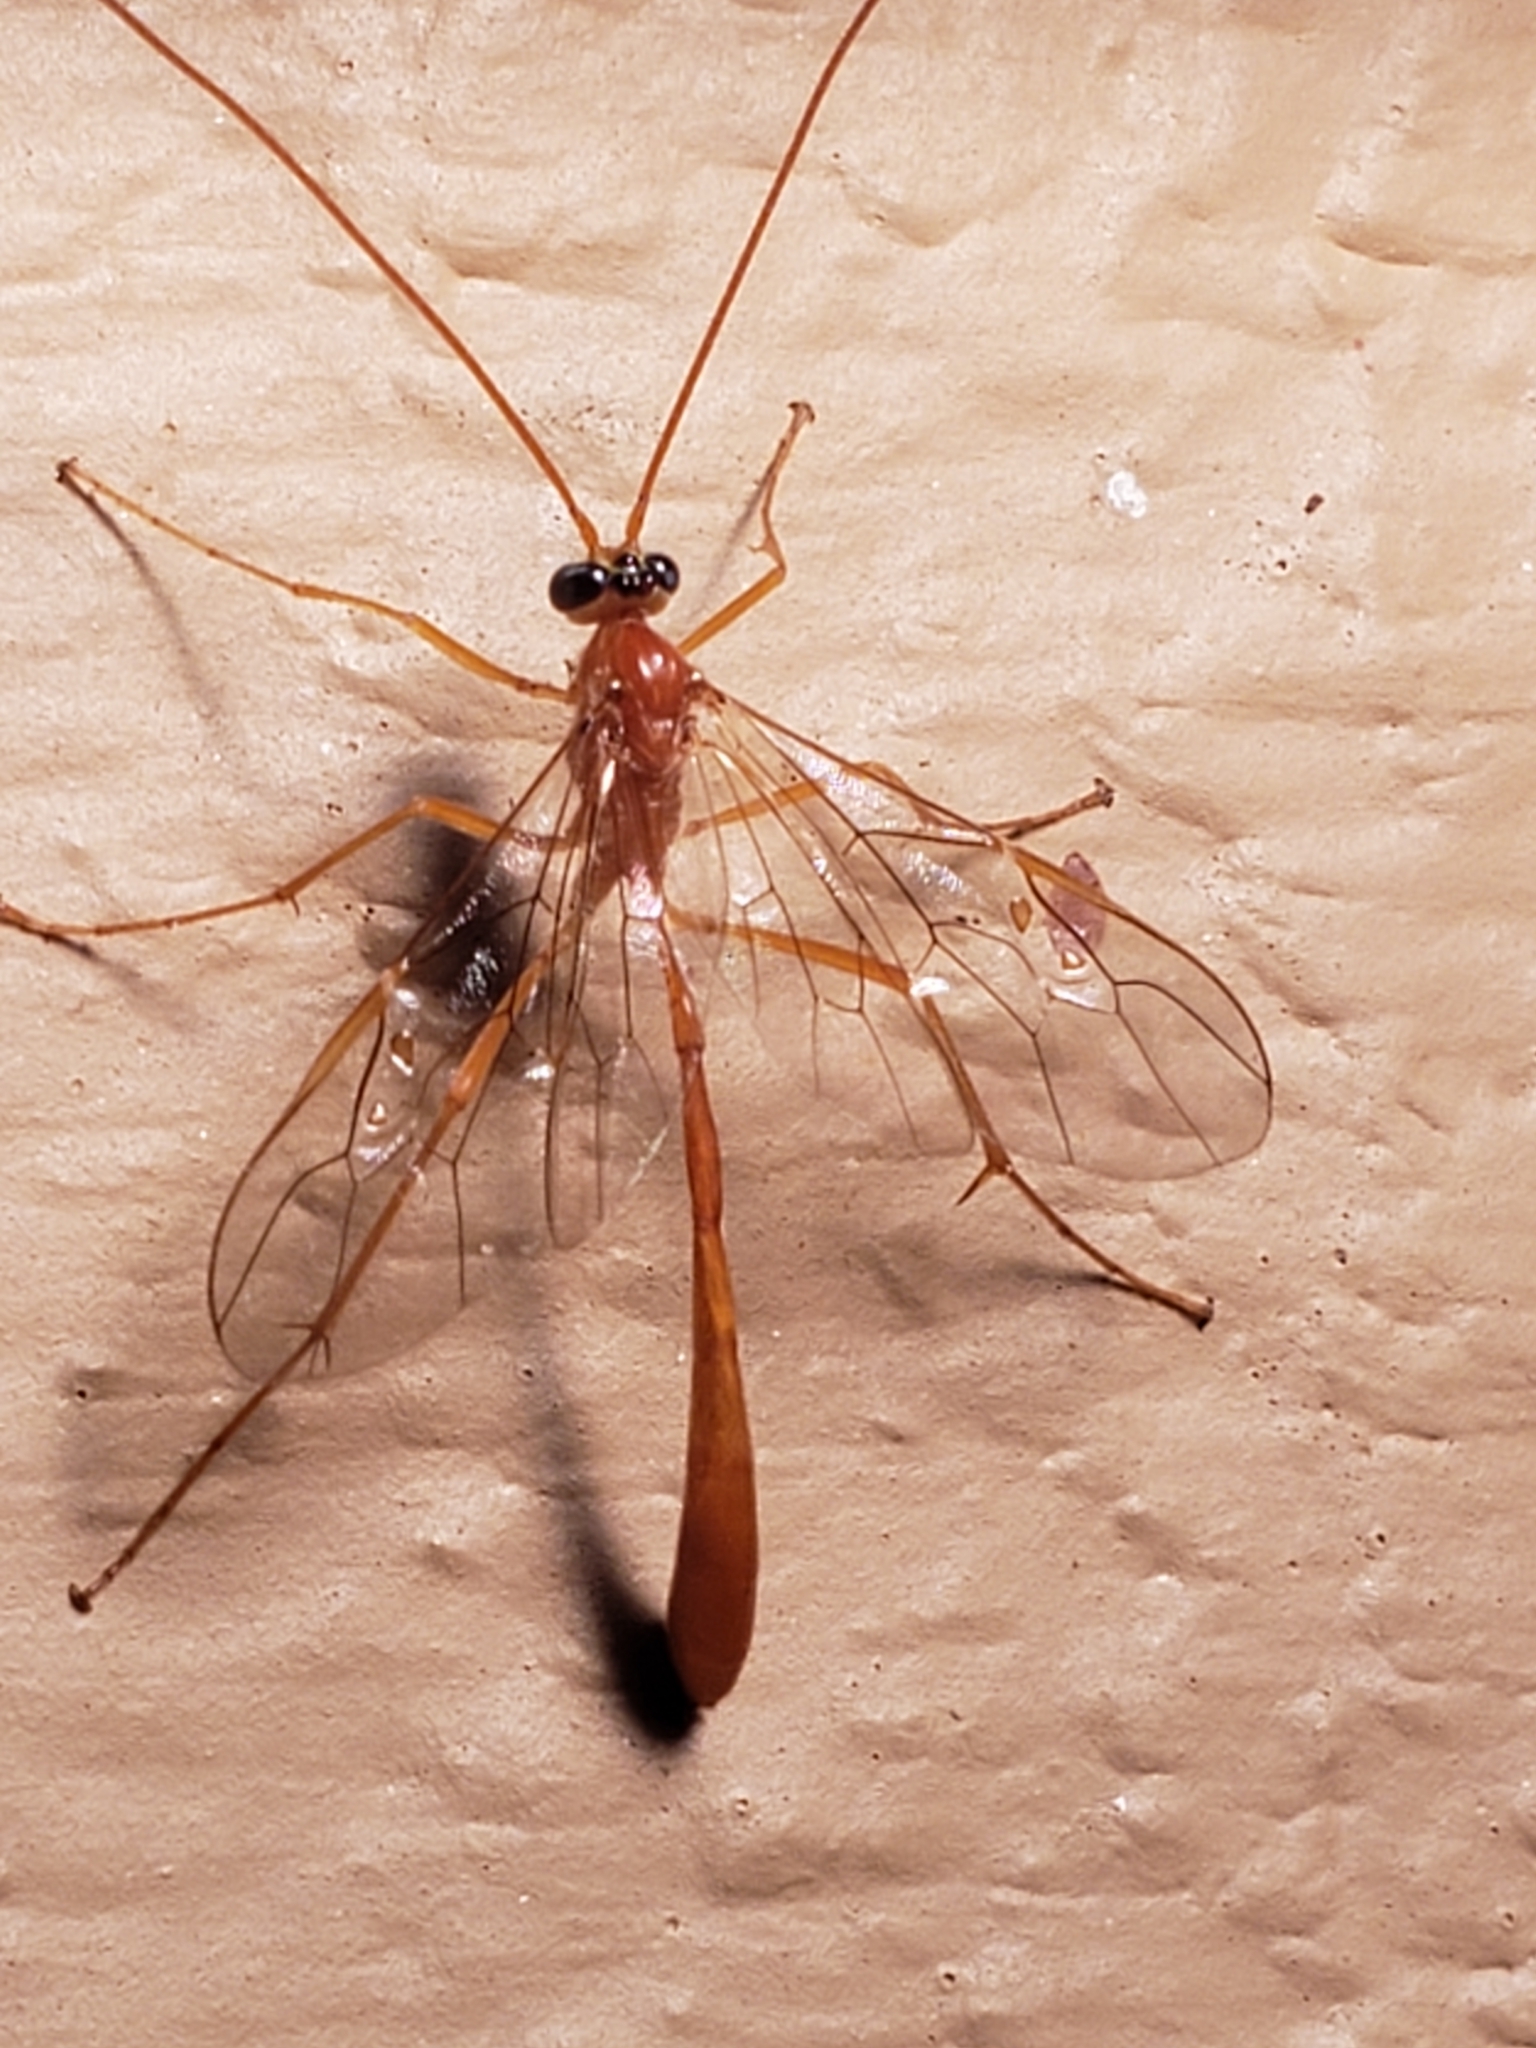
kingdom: Animalia
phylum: Arthropoda
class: Insecta
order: Hymenoptera
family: Ichneumonidae
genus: Enicospilus
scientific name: Enicospilus purgatus
